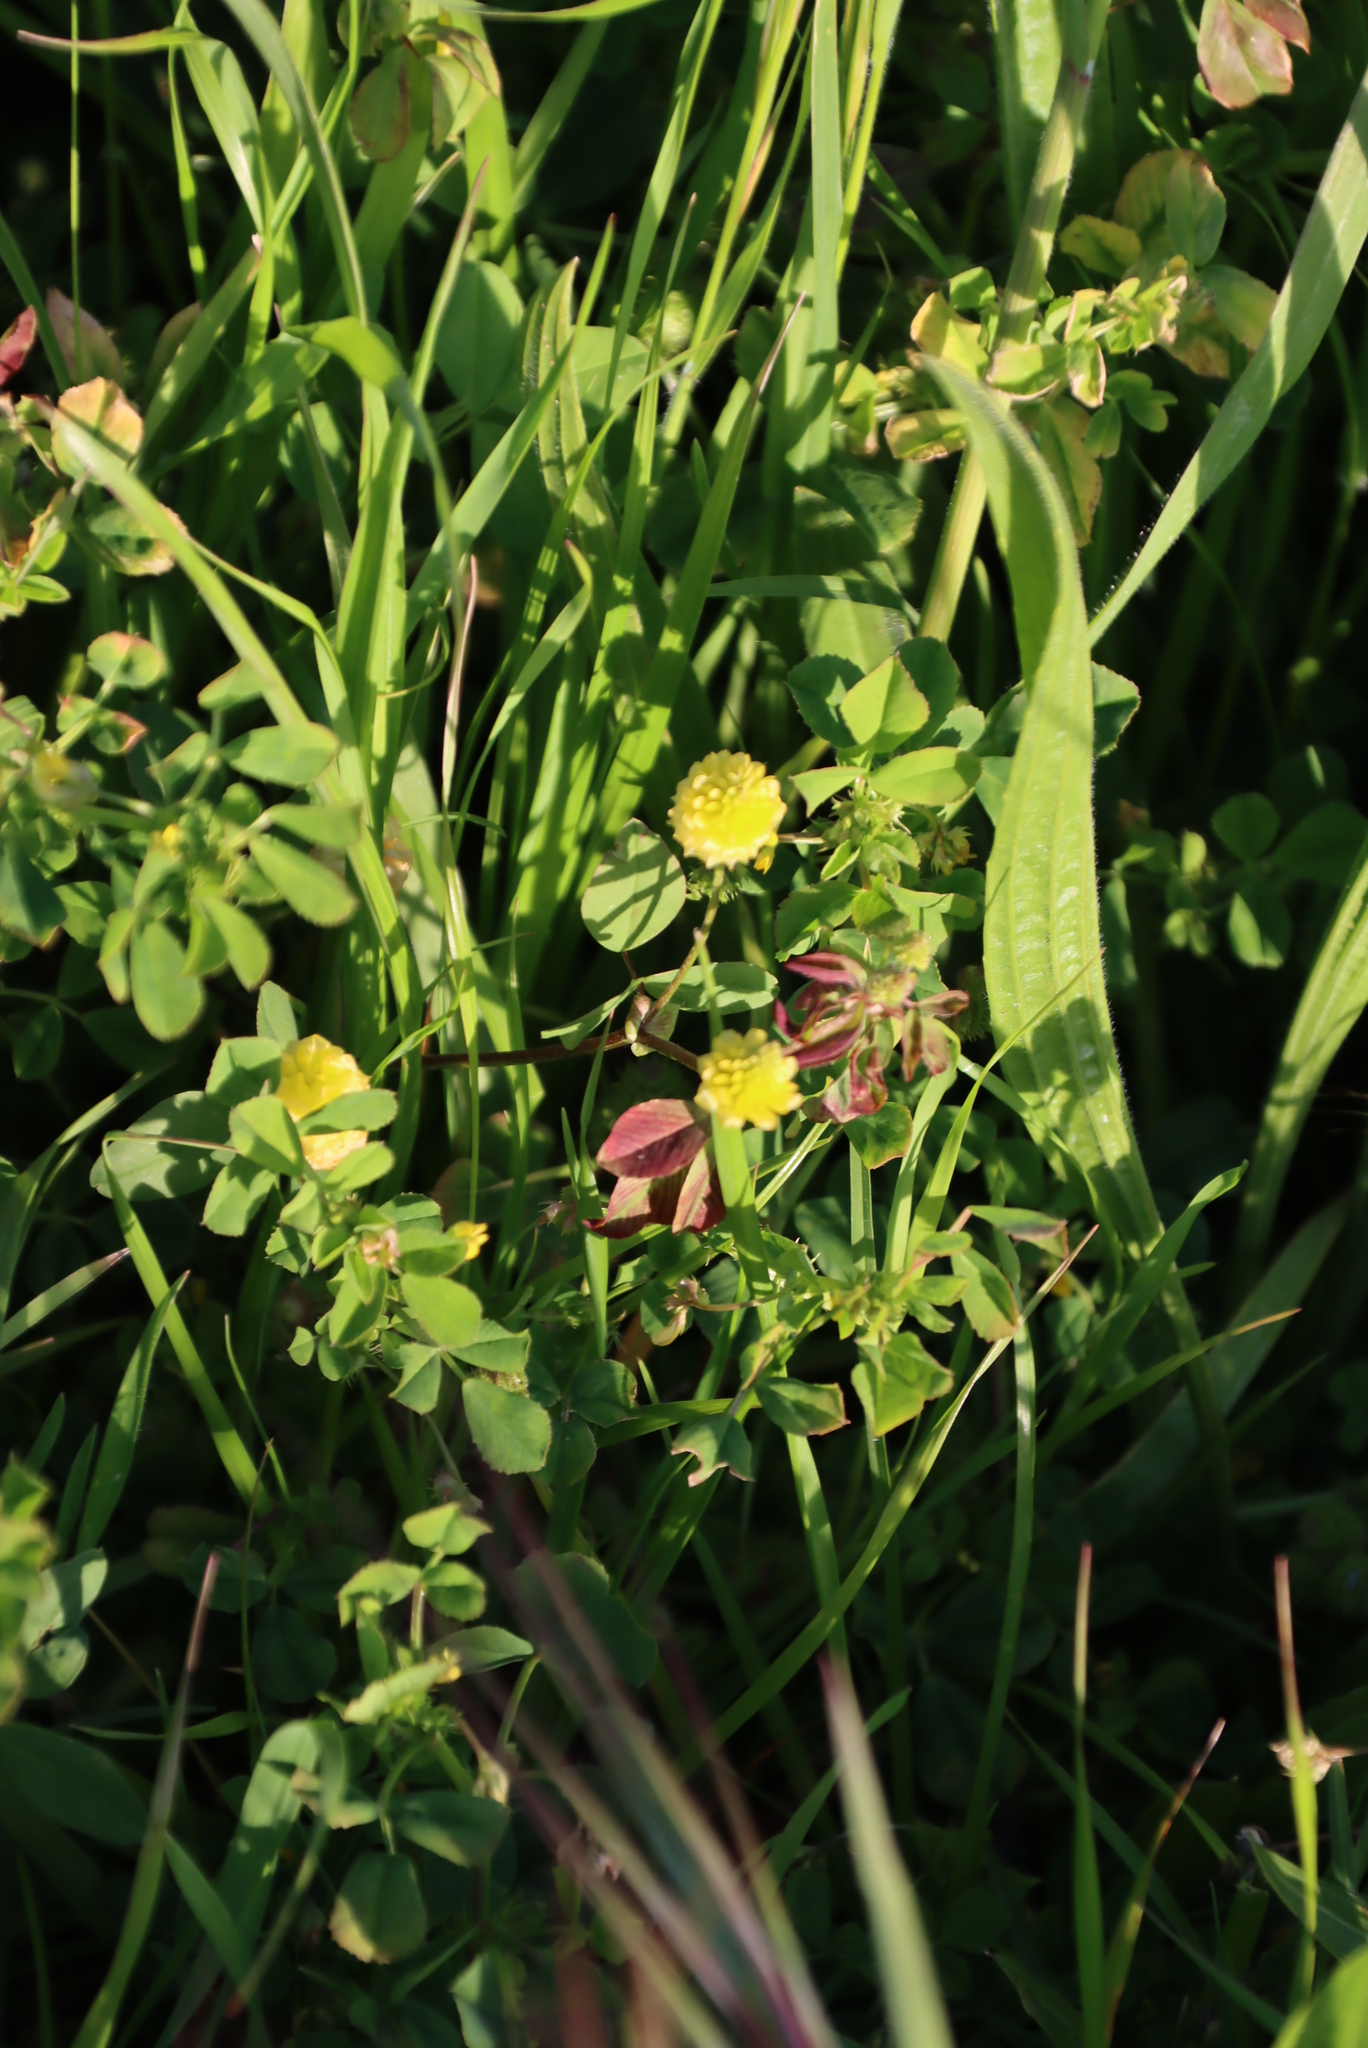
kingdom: Plantae
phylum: Tracheophyta
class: Magnoliopsida
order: Fabales
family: Fabaceae
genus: Trifolium
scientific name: Trifolium campestre
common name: Field clover
